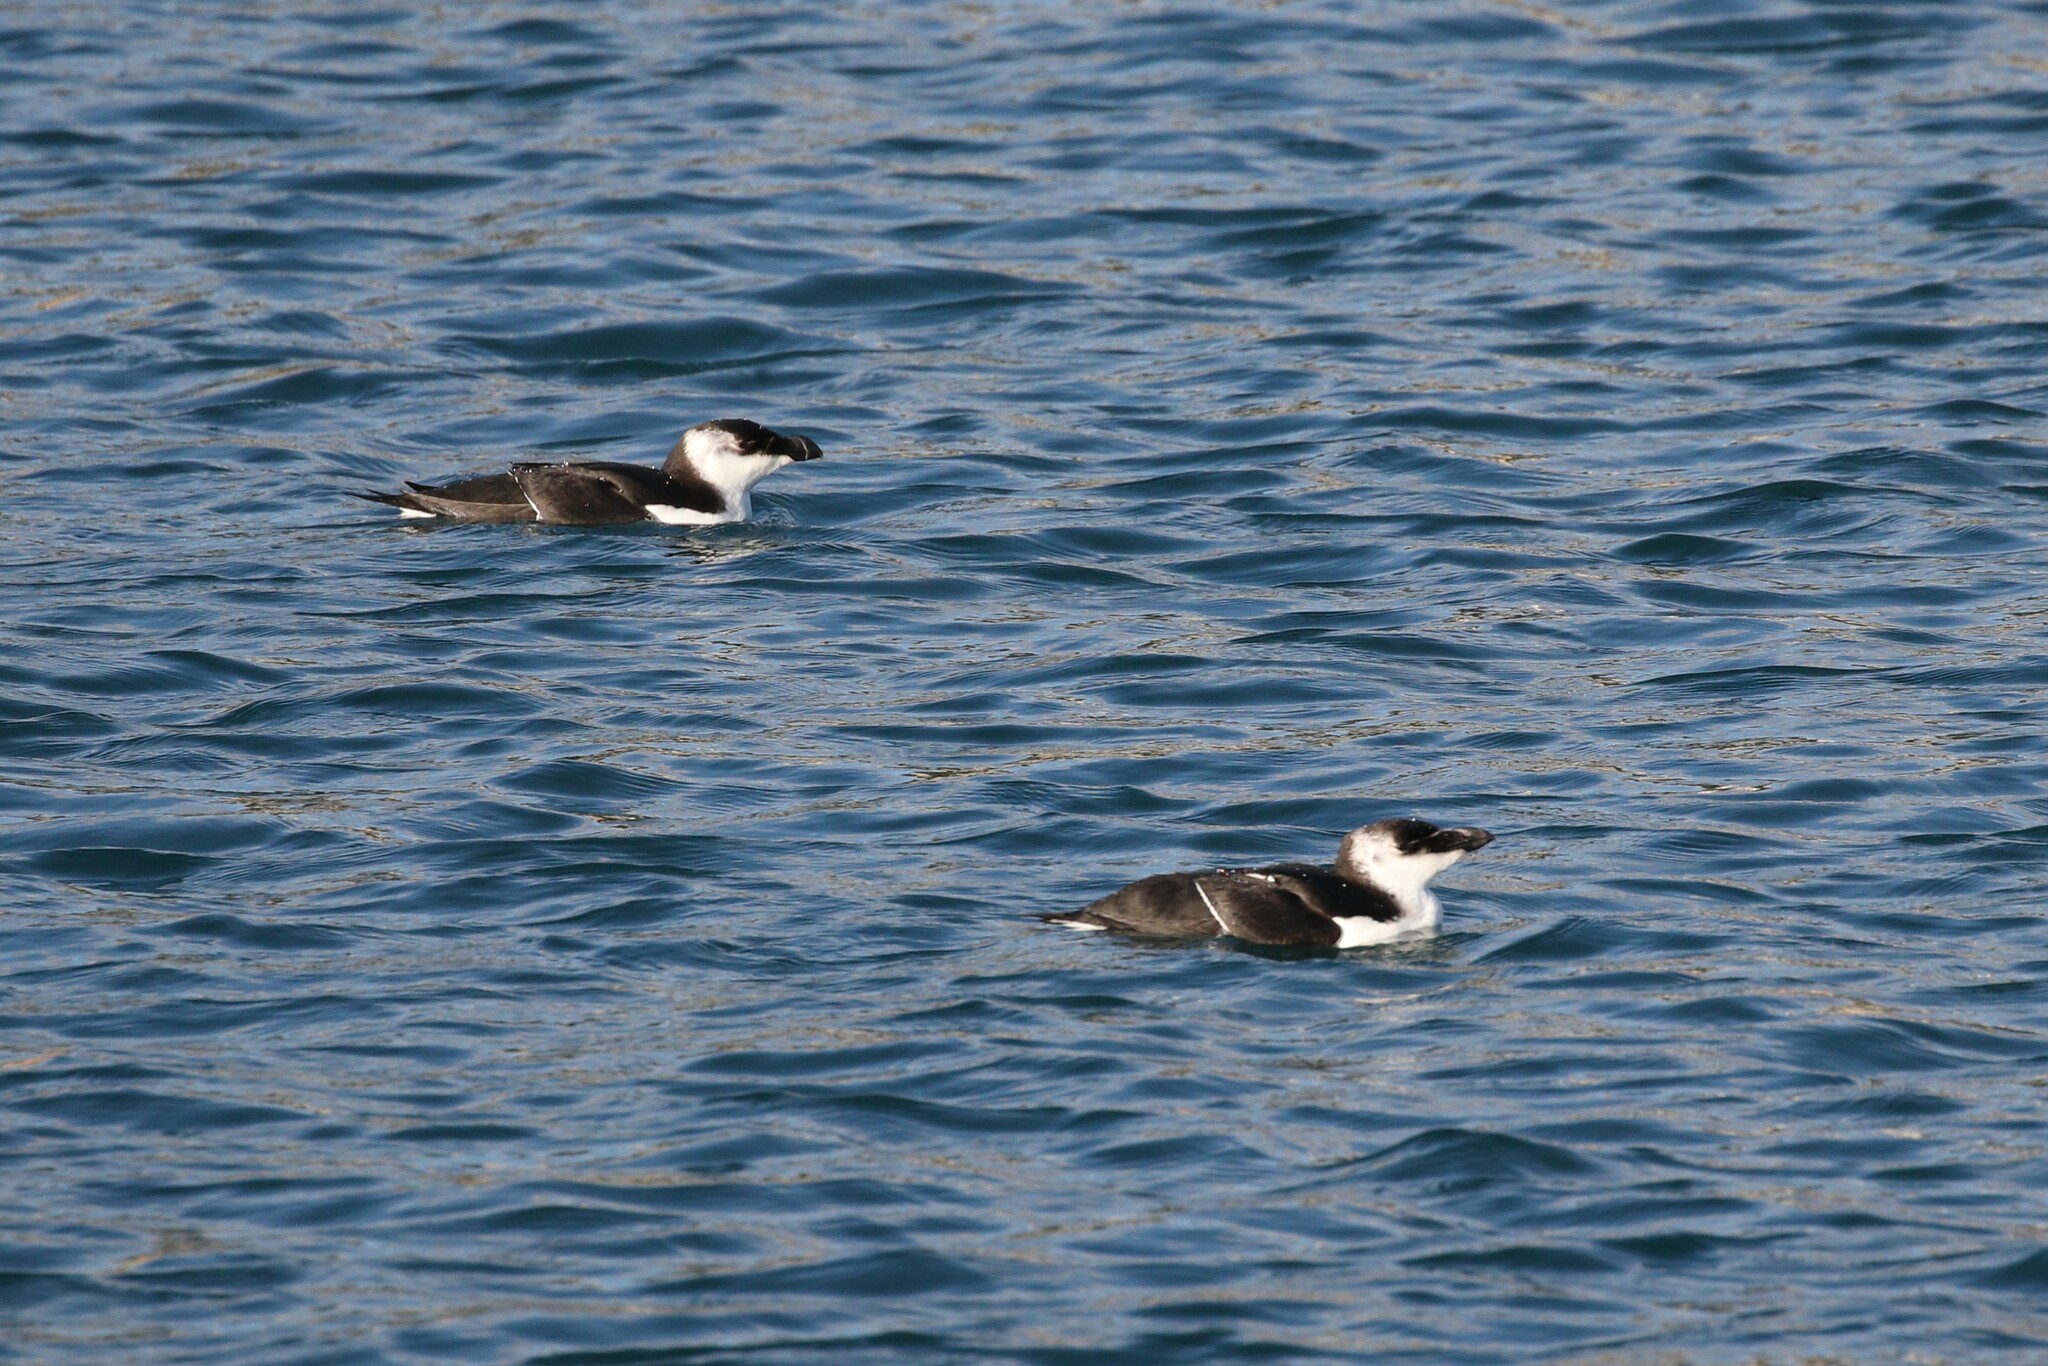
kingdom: Animalia
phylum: Chordata
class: Aves
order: Charadriiformes
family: Alcidae
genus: Alca
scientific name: Alca torda
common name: Razorbill
